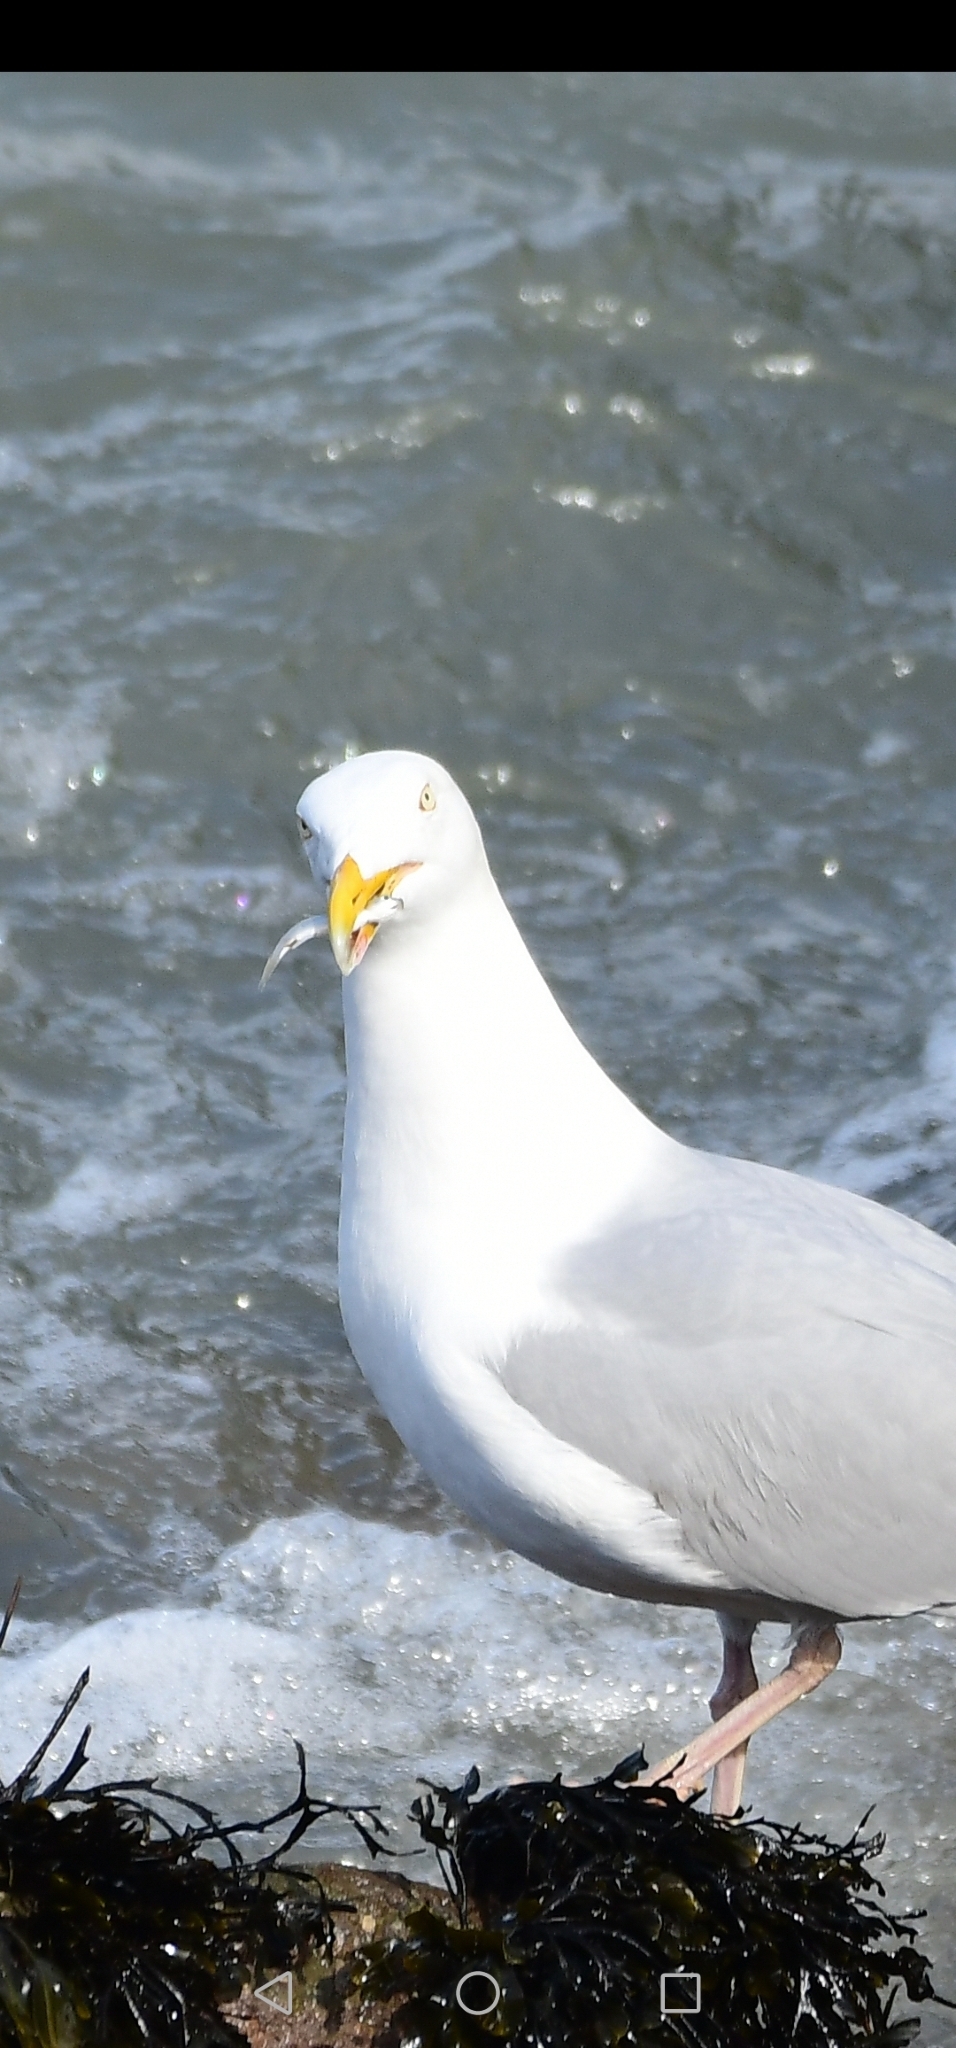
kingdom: Animalia
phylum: Chordata
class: Aves
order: Charadriiformes
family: Laridae
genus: Larus
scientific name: Larus argentatus
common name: Herring gull
